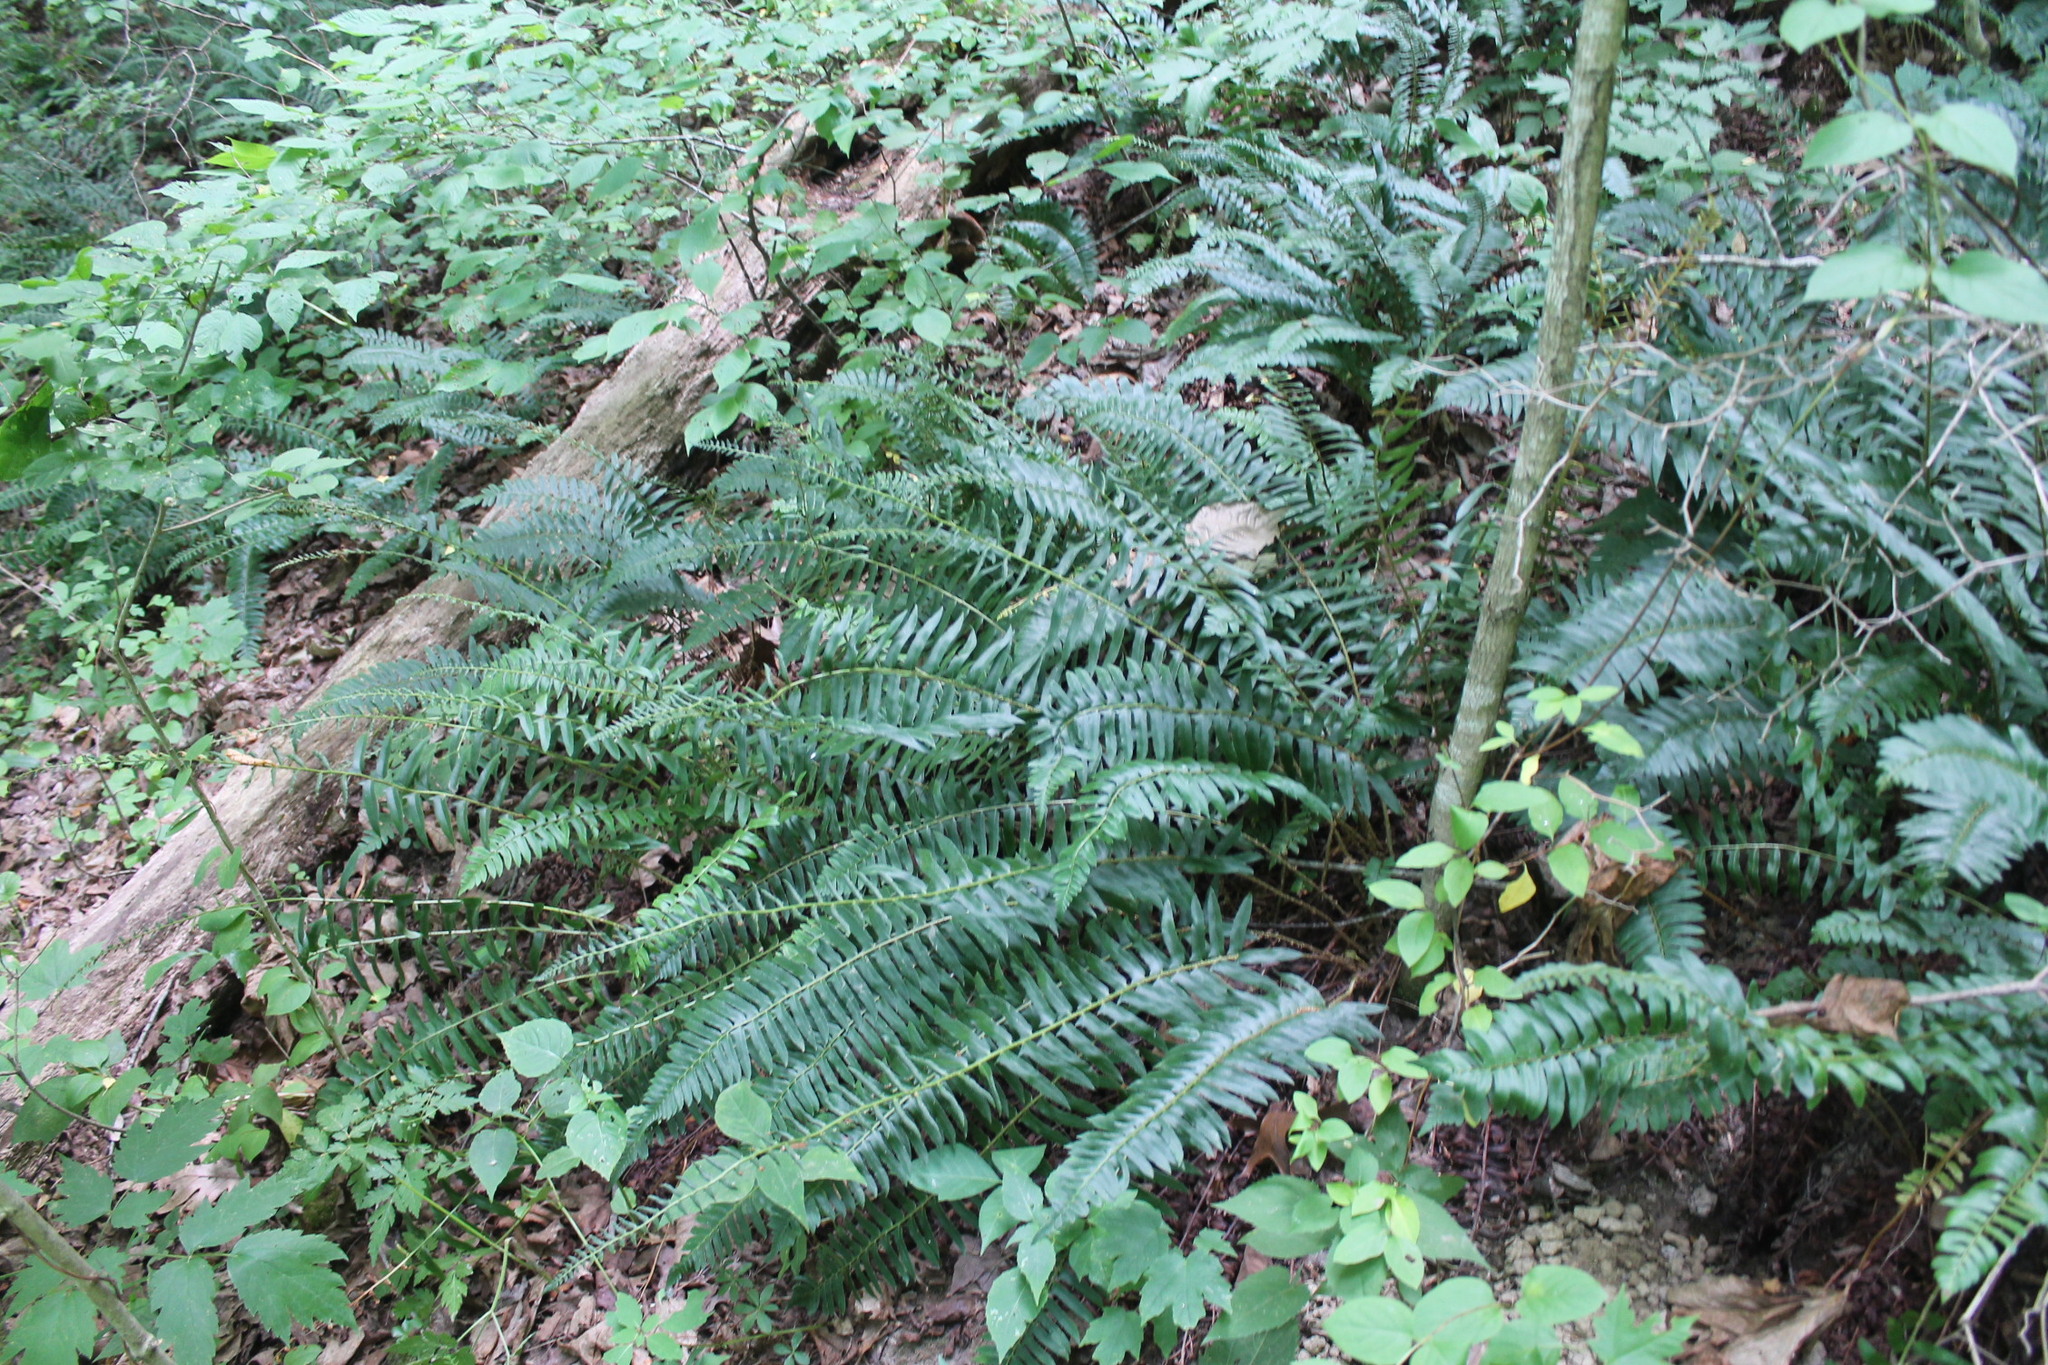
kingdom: Plantae
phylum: Tracheophyta
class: Polypodiopsida
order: Polypodiales
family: Dryopteridaceae
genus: Polystichum
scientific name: Polystichum acrostichoides
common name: Christmas fern
